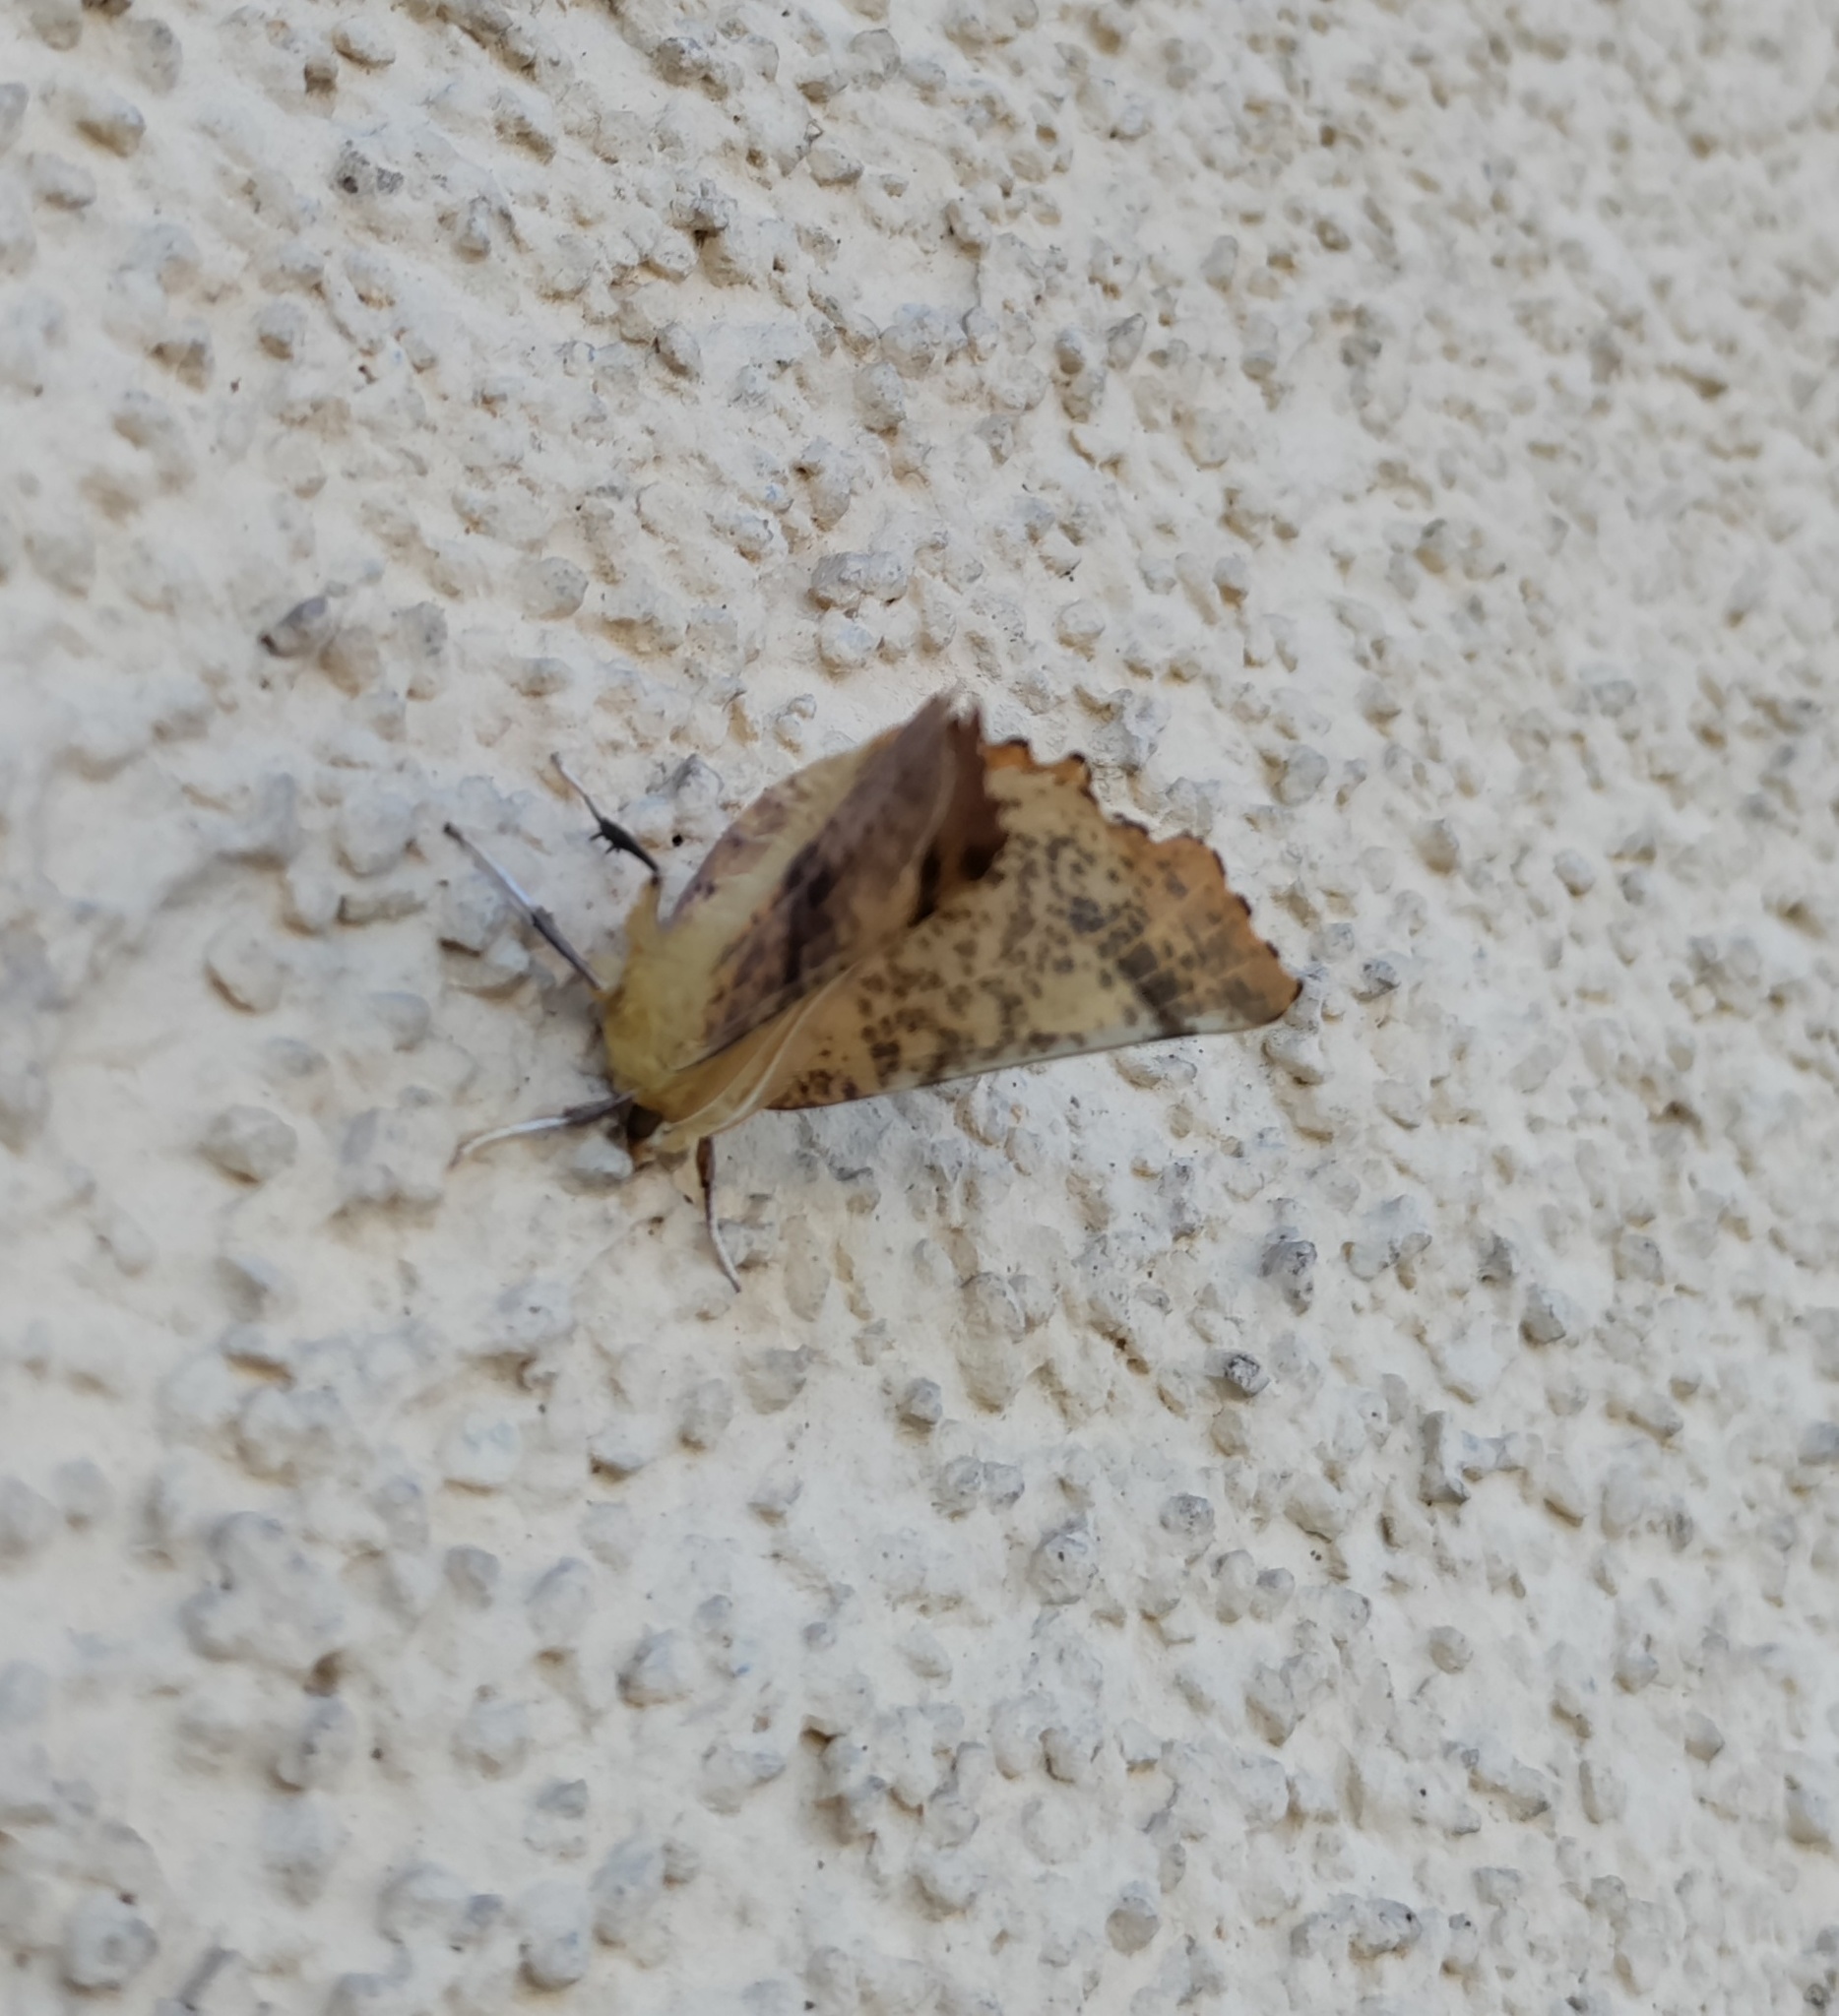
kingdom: Animalia
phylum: Arthropoda
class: Insecta
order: Lepidoptera
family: Geometridae
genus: Ennomos
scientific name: Ennomos autumnaria
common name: Large thorn
